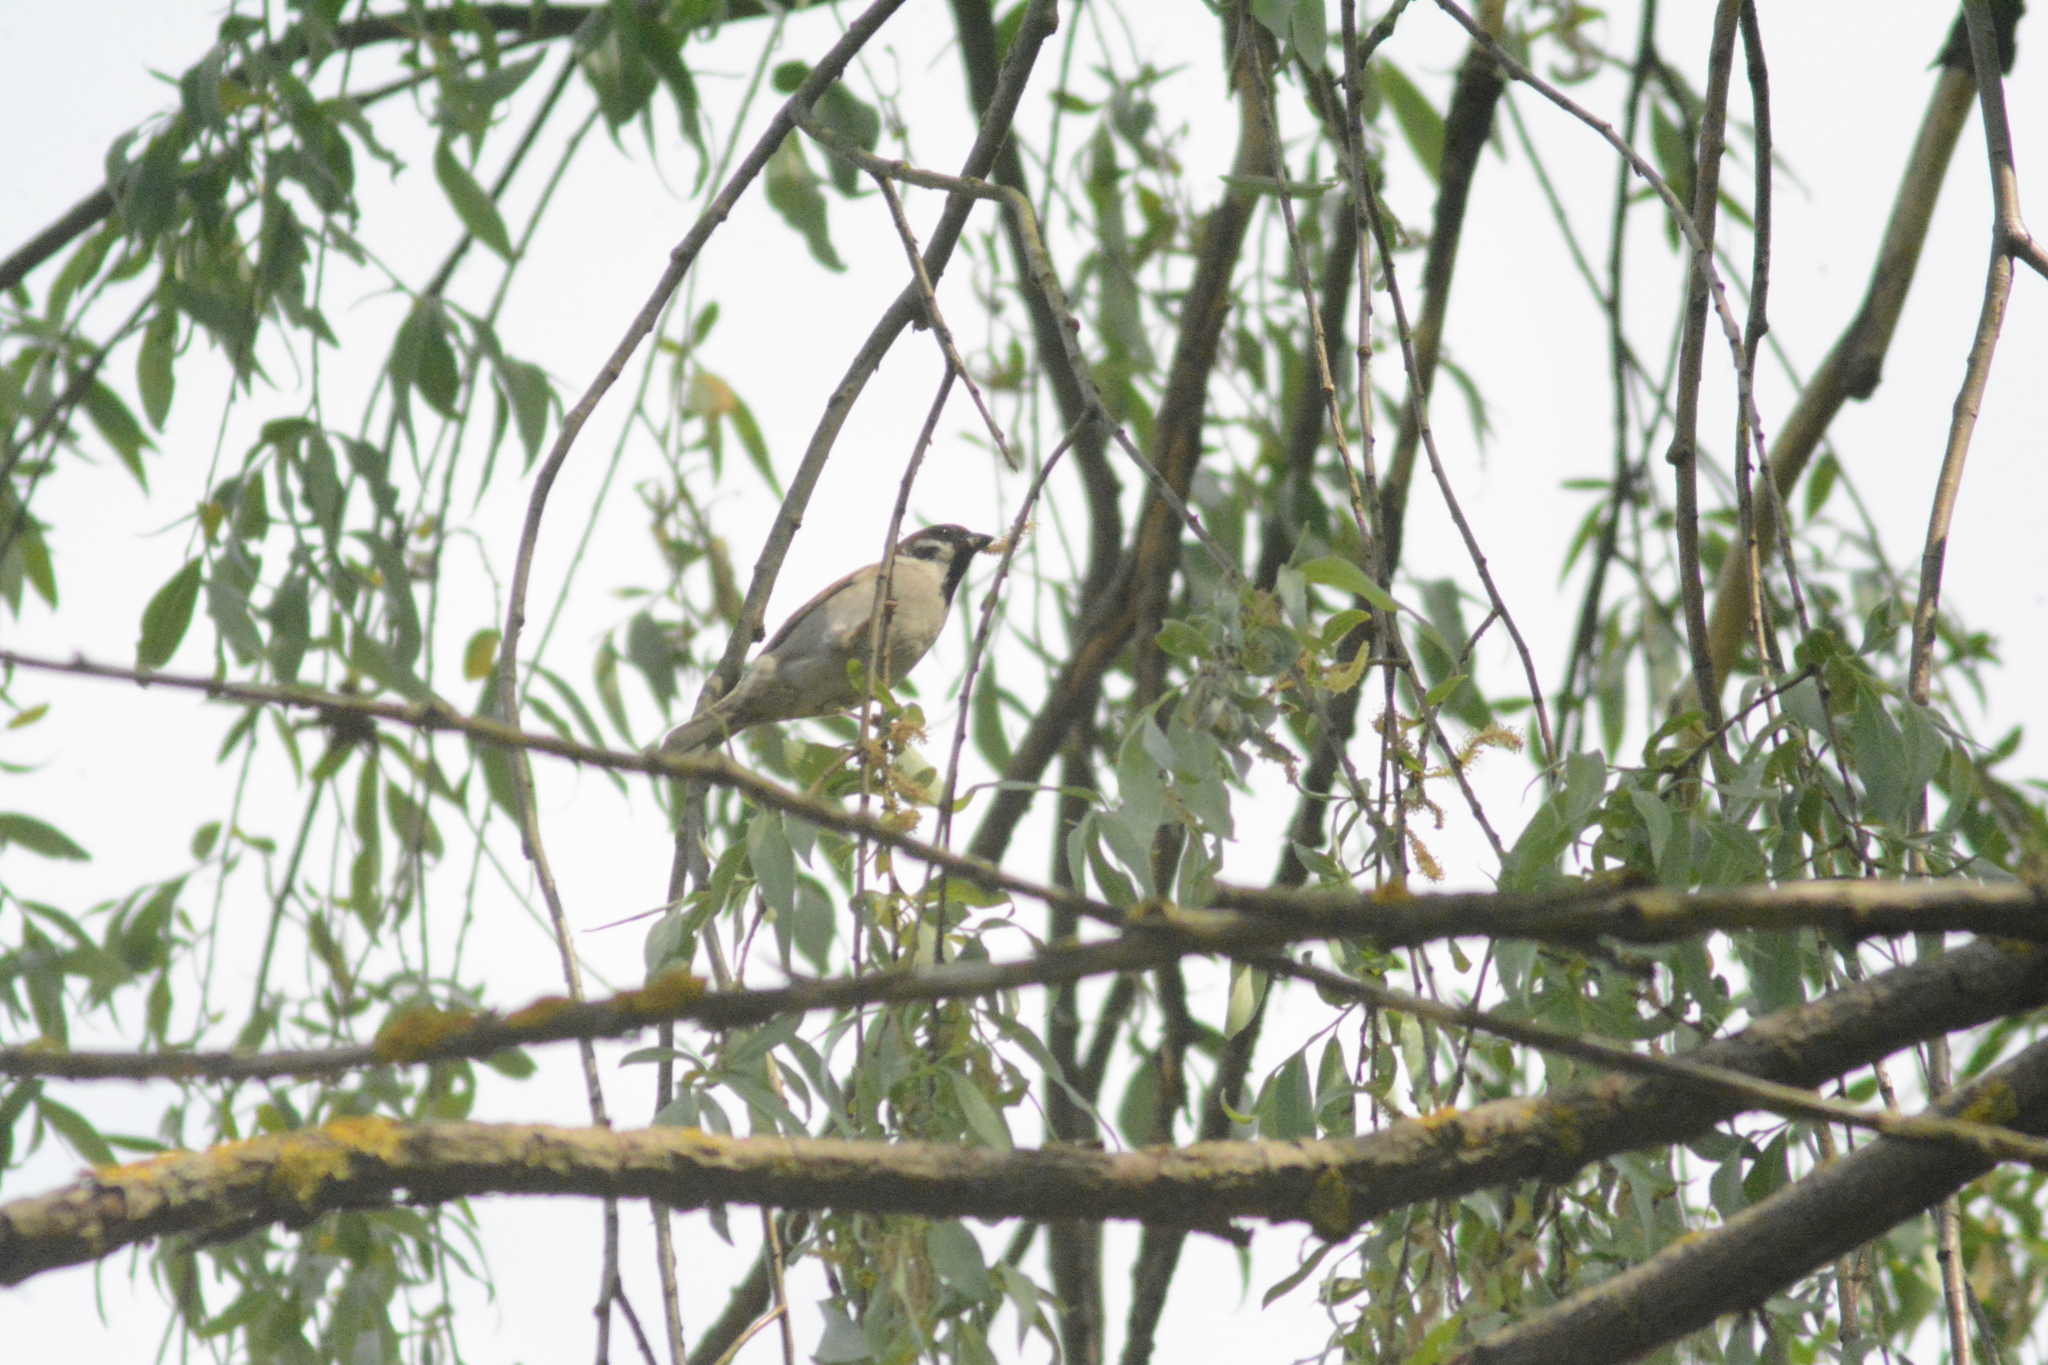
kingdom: Animalia
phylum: Chordata
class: Aves
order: Passeriformes
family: Passeridae
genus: Passer
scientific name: Passer montanus
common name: Eurasian tree sparrow
